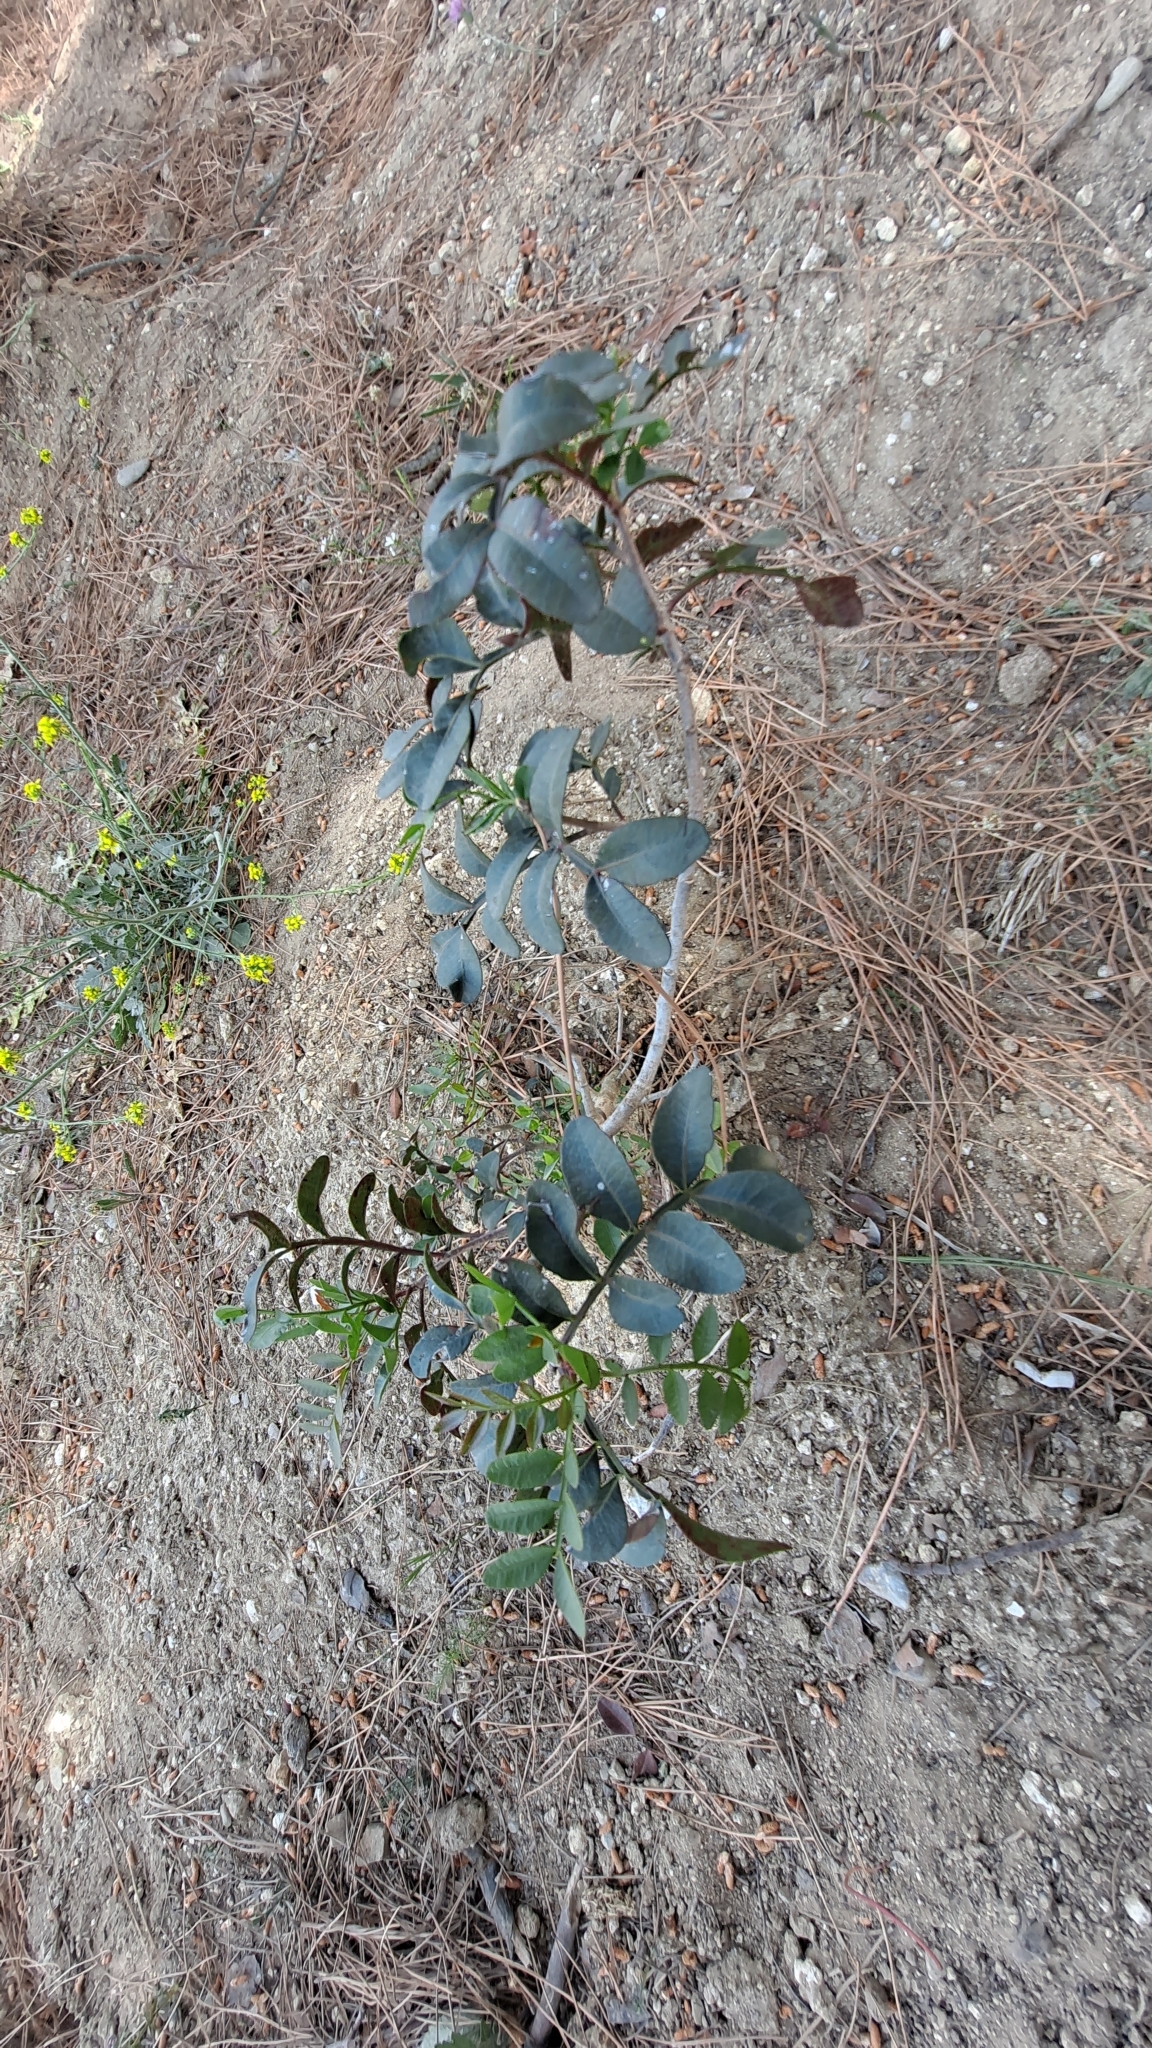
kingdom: Plantae
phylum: Tracheophyta
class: Magnoliopsida
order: Sapindales
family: Anacardiaceae
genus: Pistacia
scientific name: Pistacia lentiscus
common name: Lentisk
